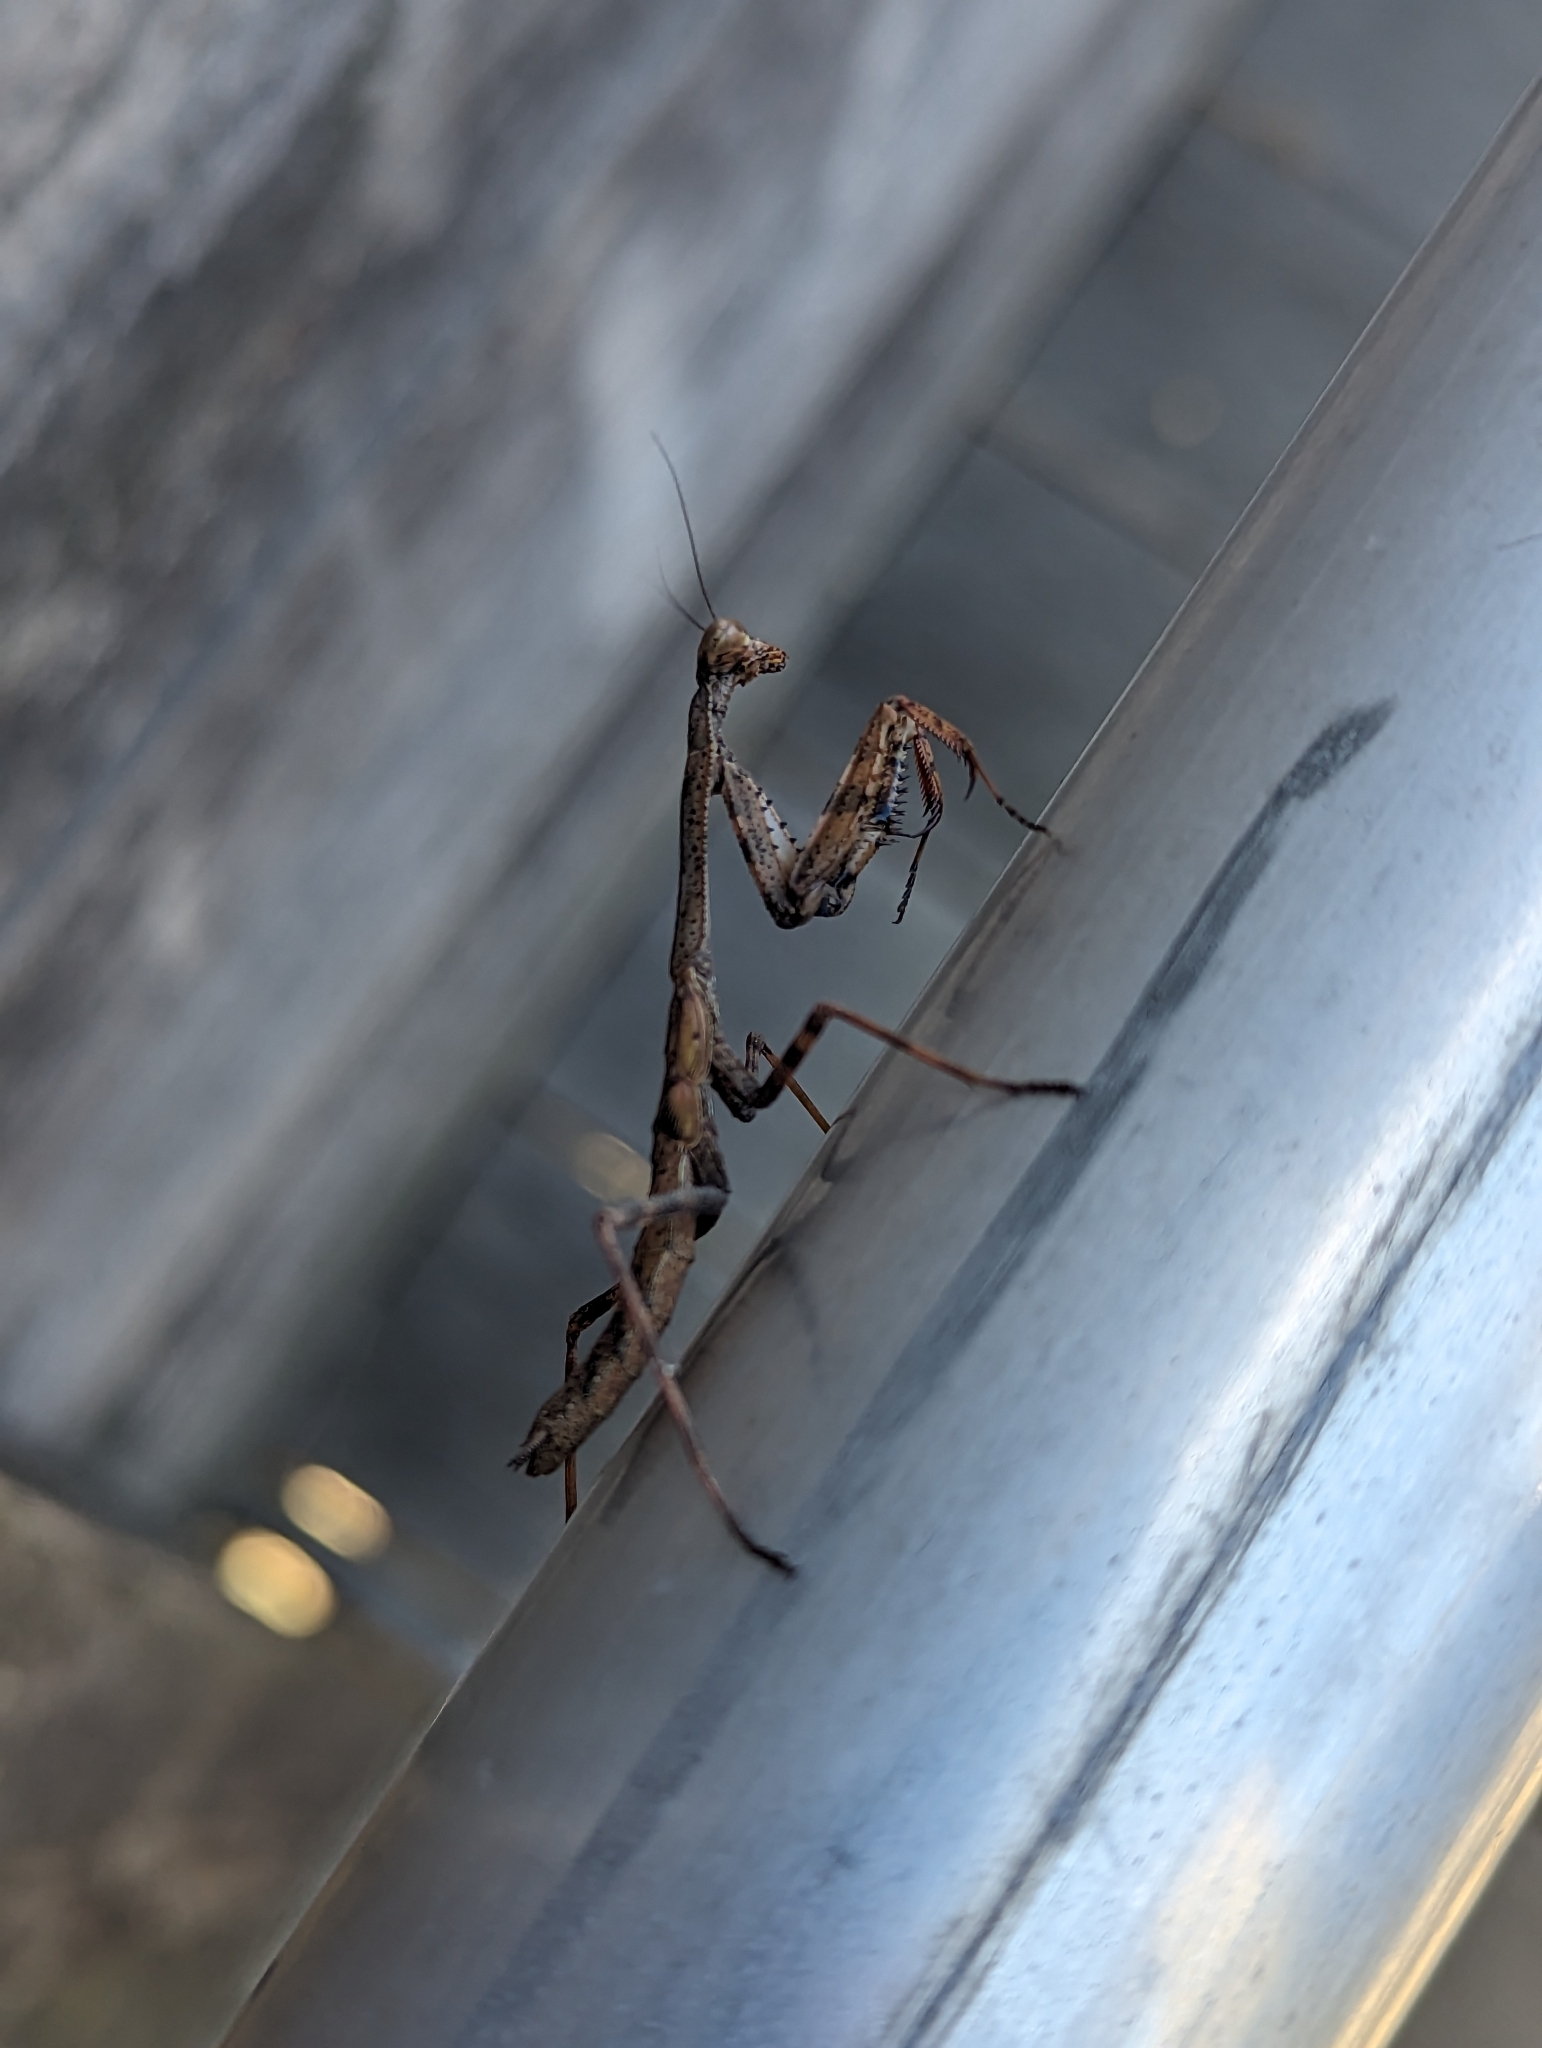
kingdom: Animalia
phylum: Arthropoda
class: Insecta
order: Mantodea
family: Mantidae
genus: Stagmomantis
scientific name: Stagmomantis carolina
